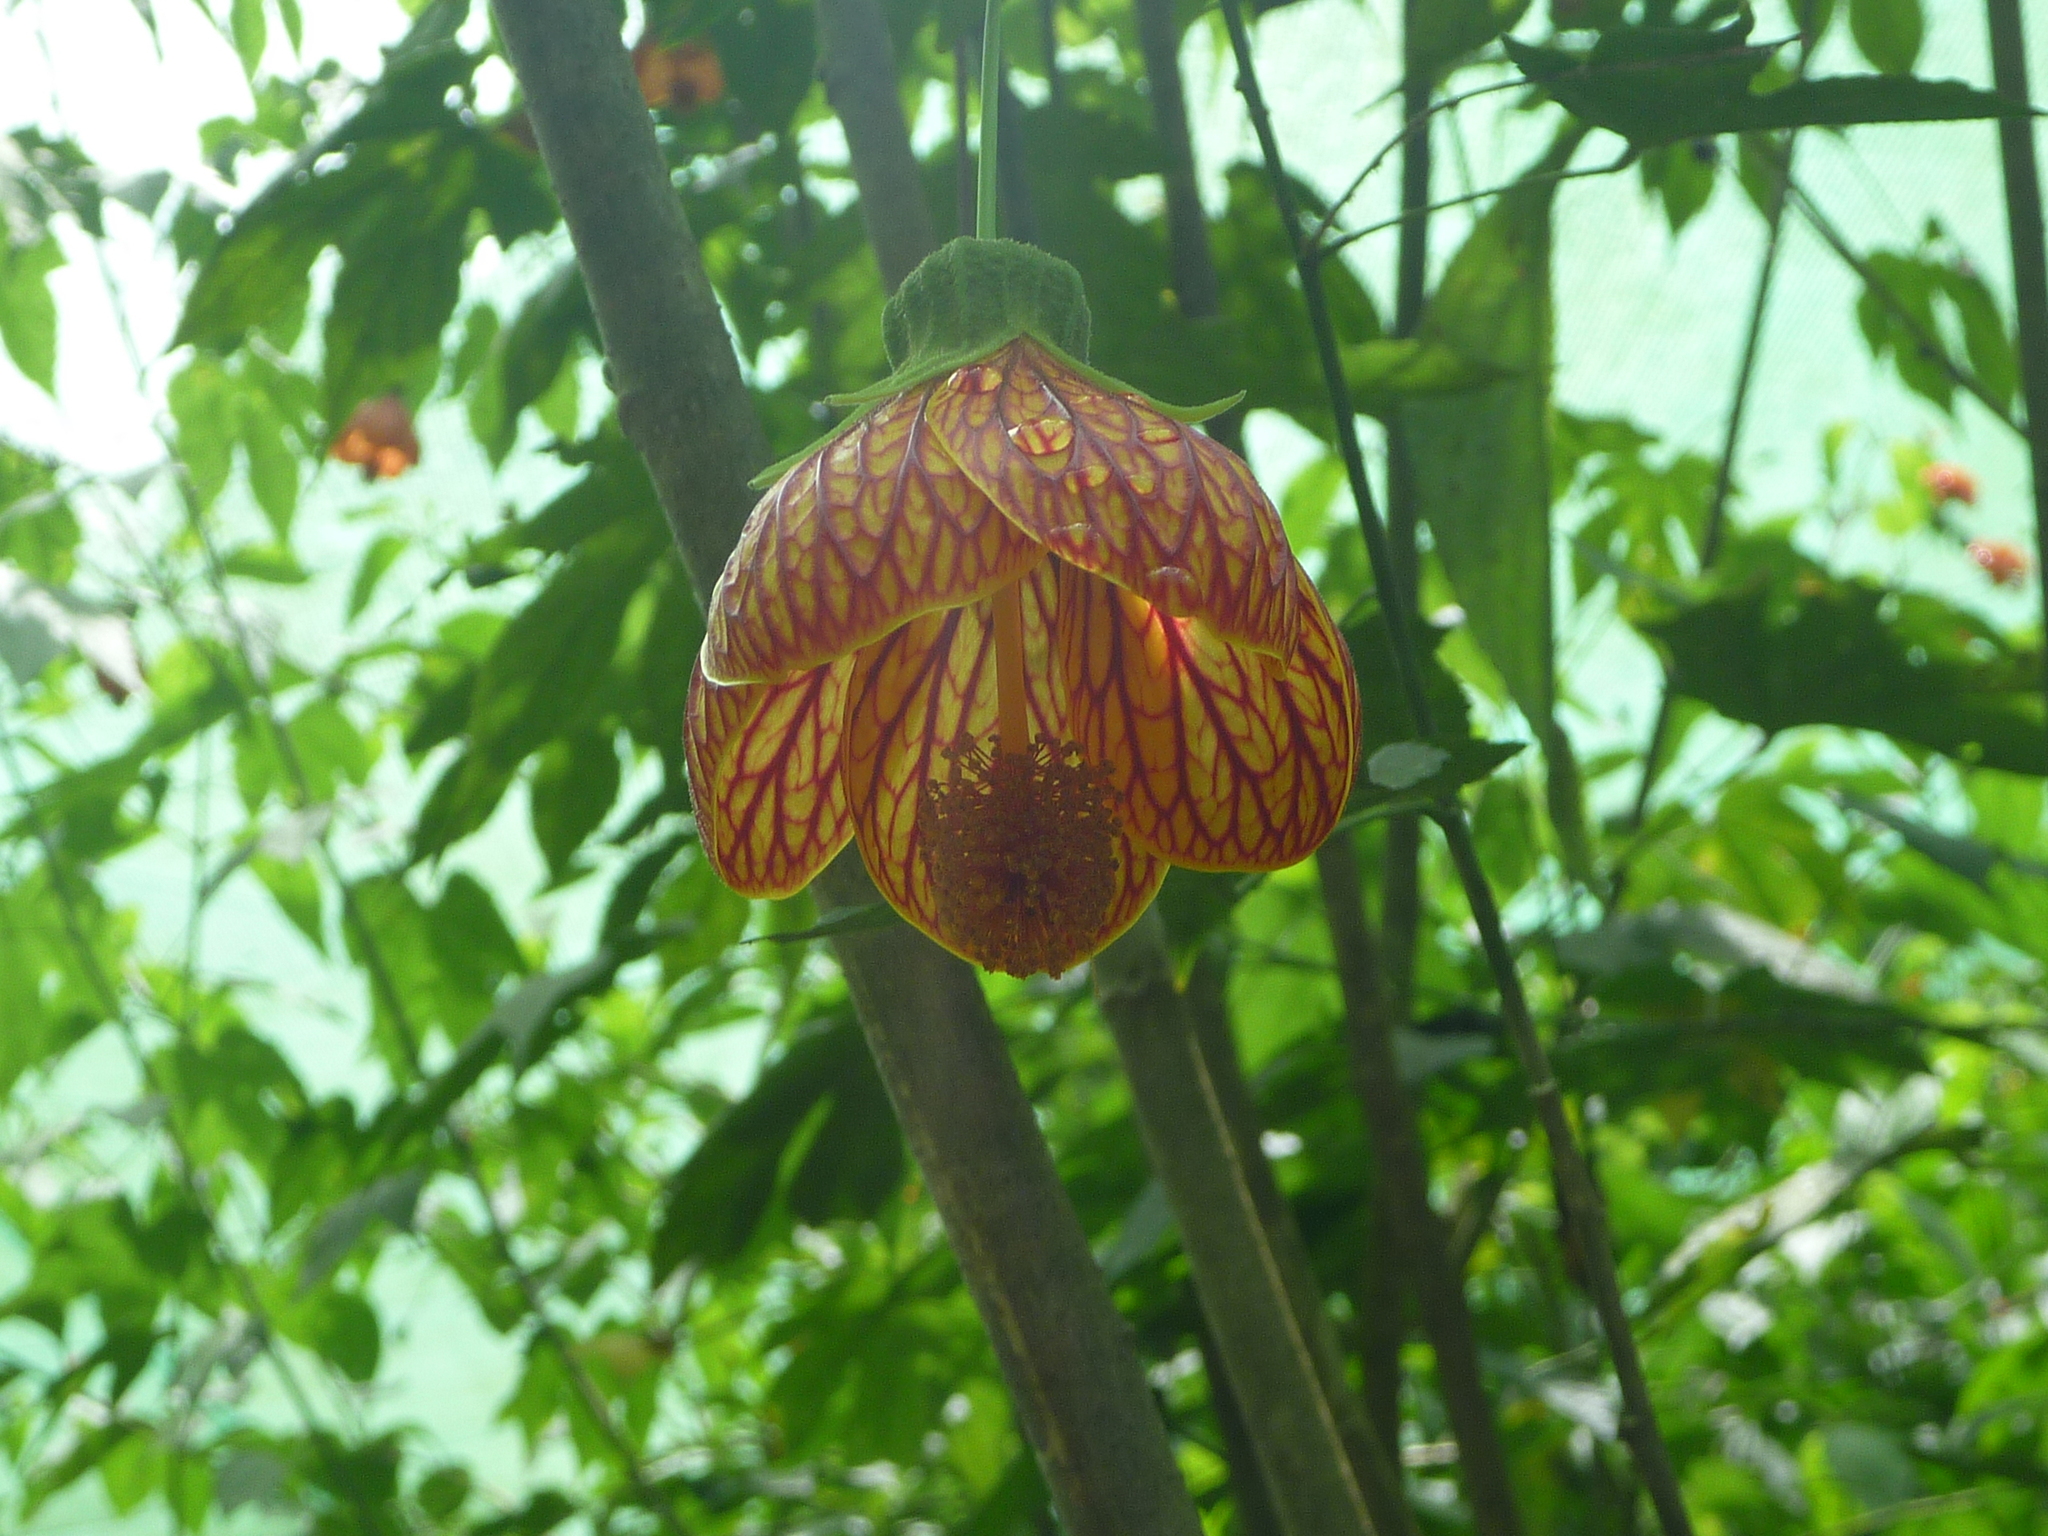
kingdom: Plantae
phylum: Tracheophyta
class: Magnoliopsida
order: Malvales
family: Malvaceae
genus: Callianthe
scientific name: Callianthe picta
